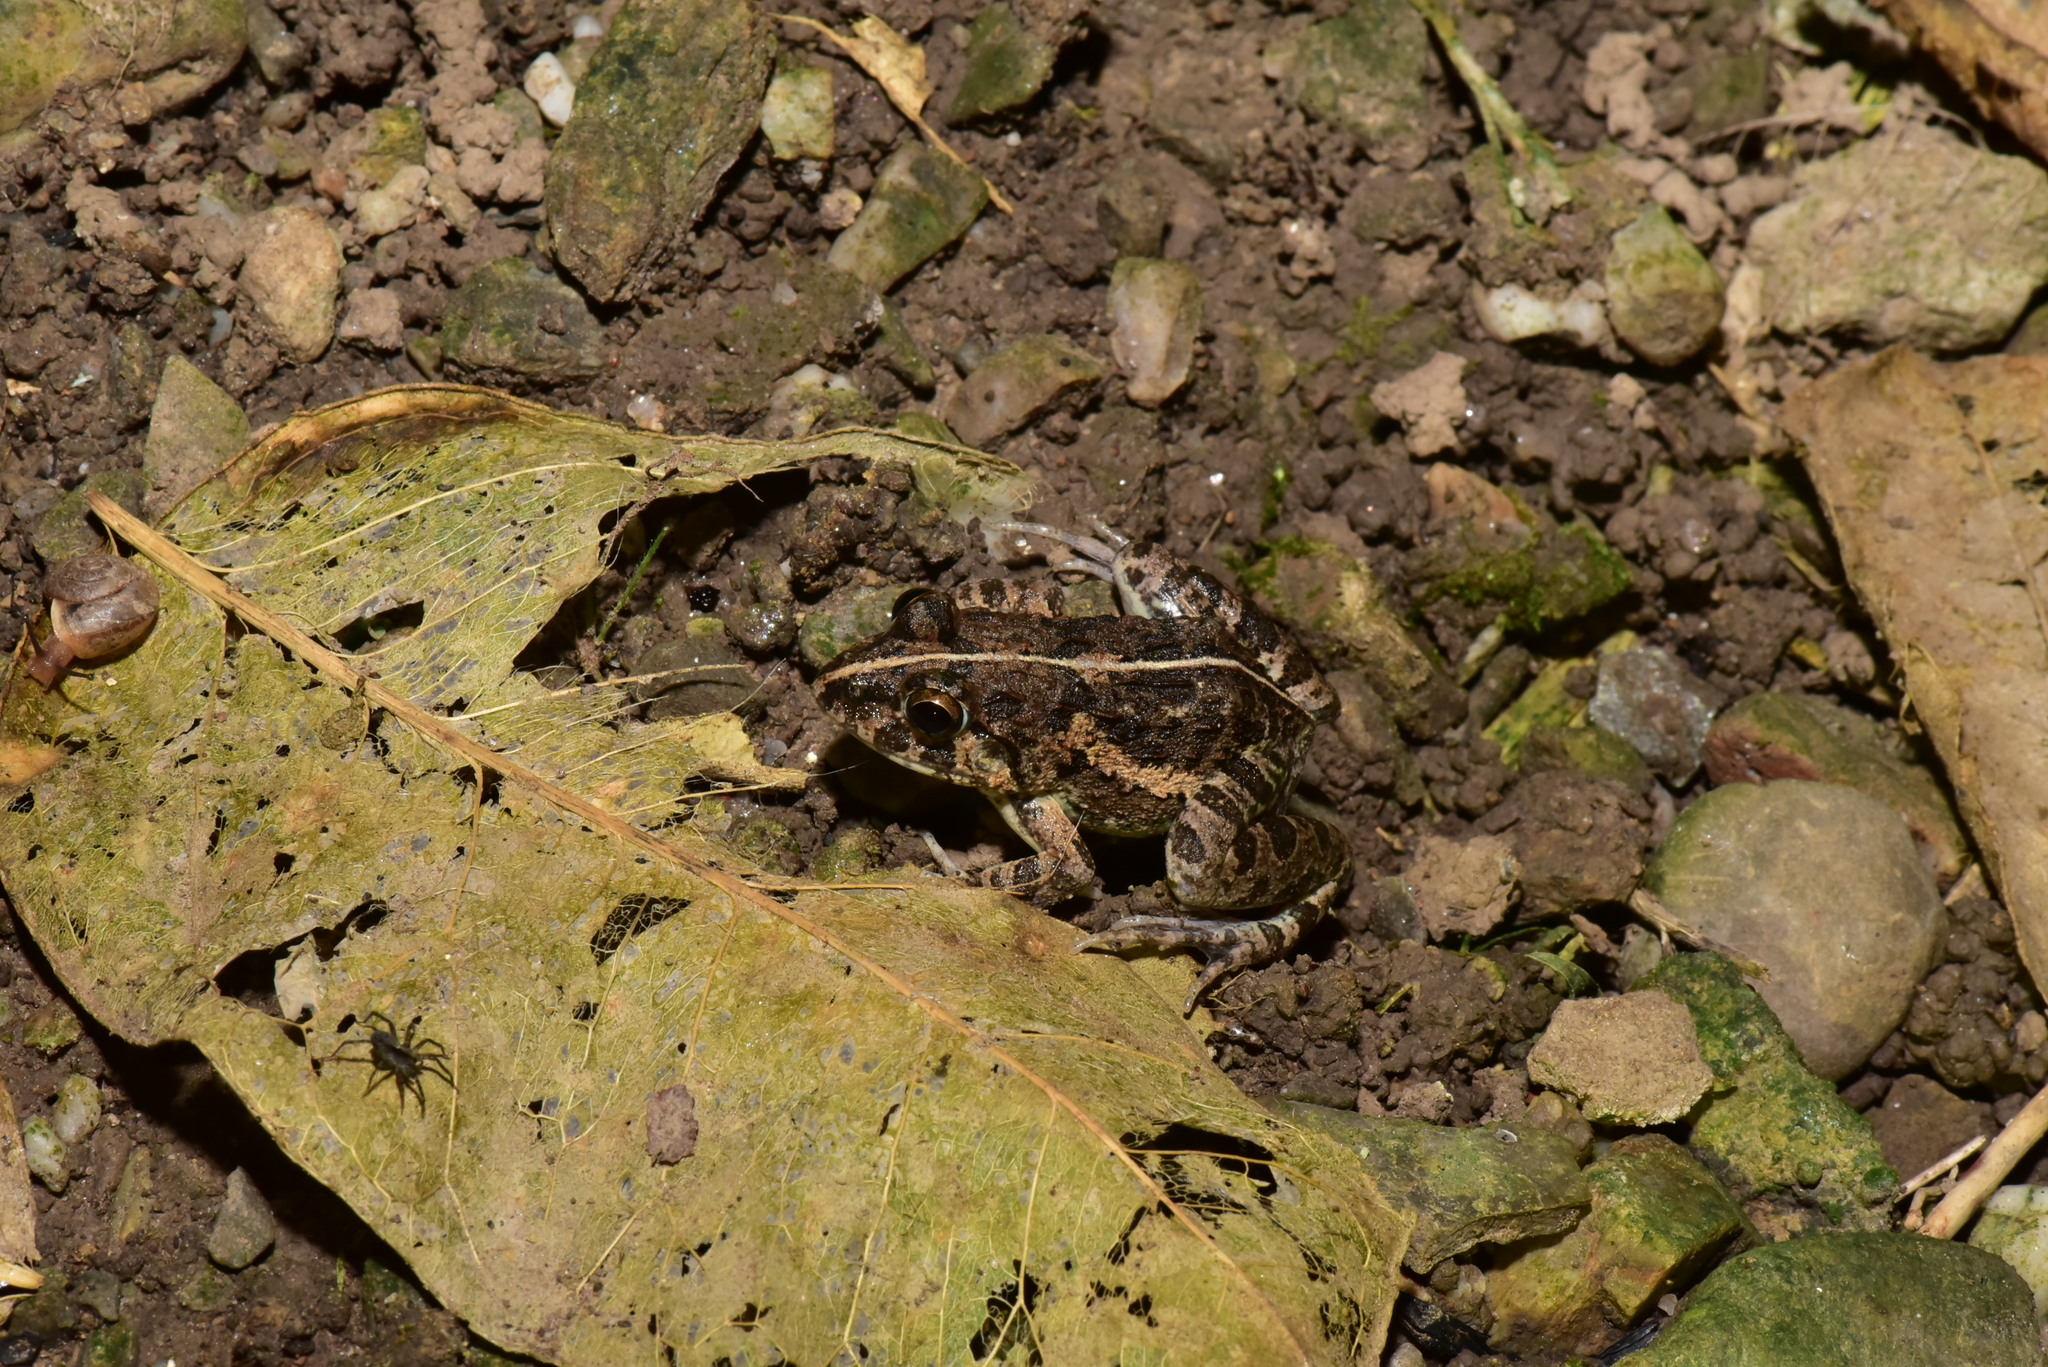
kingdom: Animalia
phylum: Chordata
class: Amphibia
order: Anura
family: Dicroglossidae
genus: Fejervarya
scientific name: Fejervarya limnocharis
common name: Asian grass frog/common pond frog/field frog/grass frog/indian rice frog
